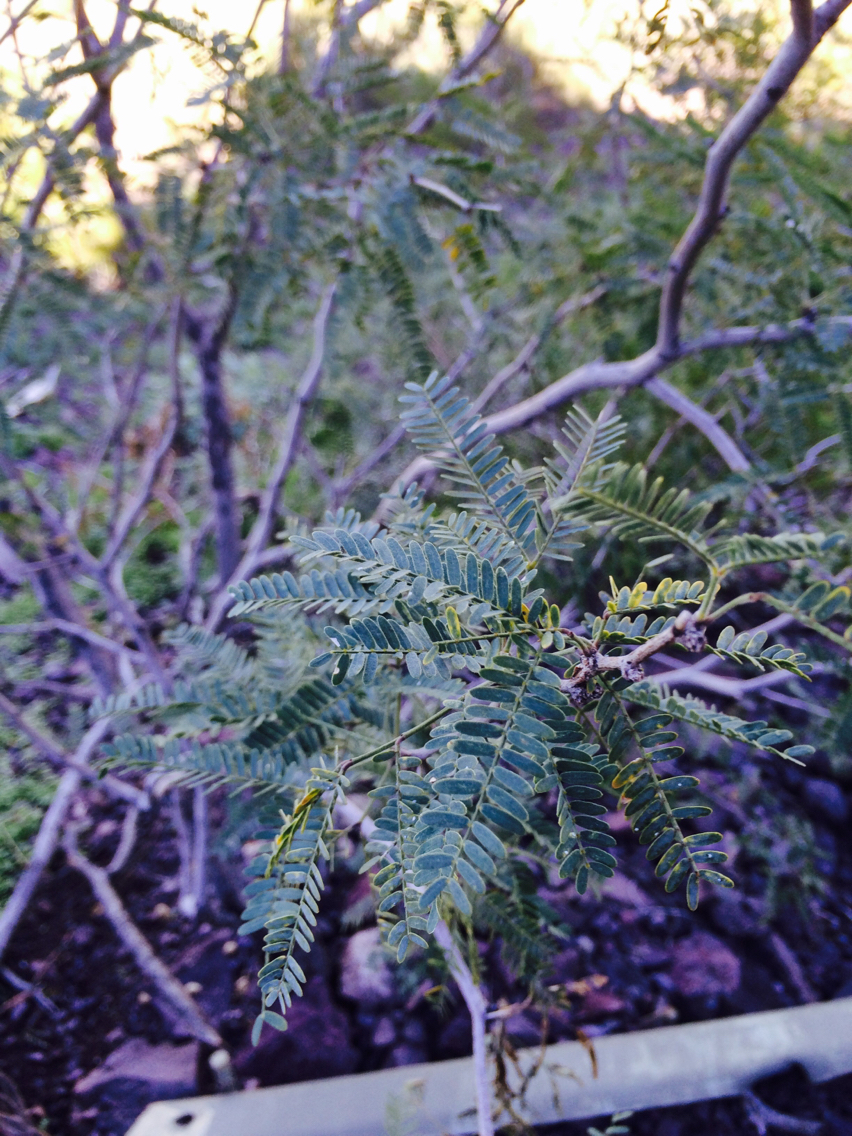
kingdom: Plantae
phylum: Tracheophyta
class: Magnoliopsida
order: Fabales
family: Fabaceae
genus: Prosopis
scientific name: Prosopis velutina
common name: Velvet mesquite
